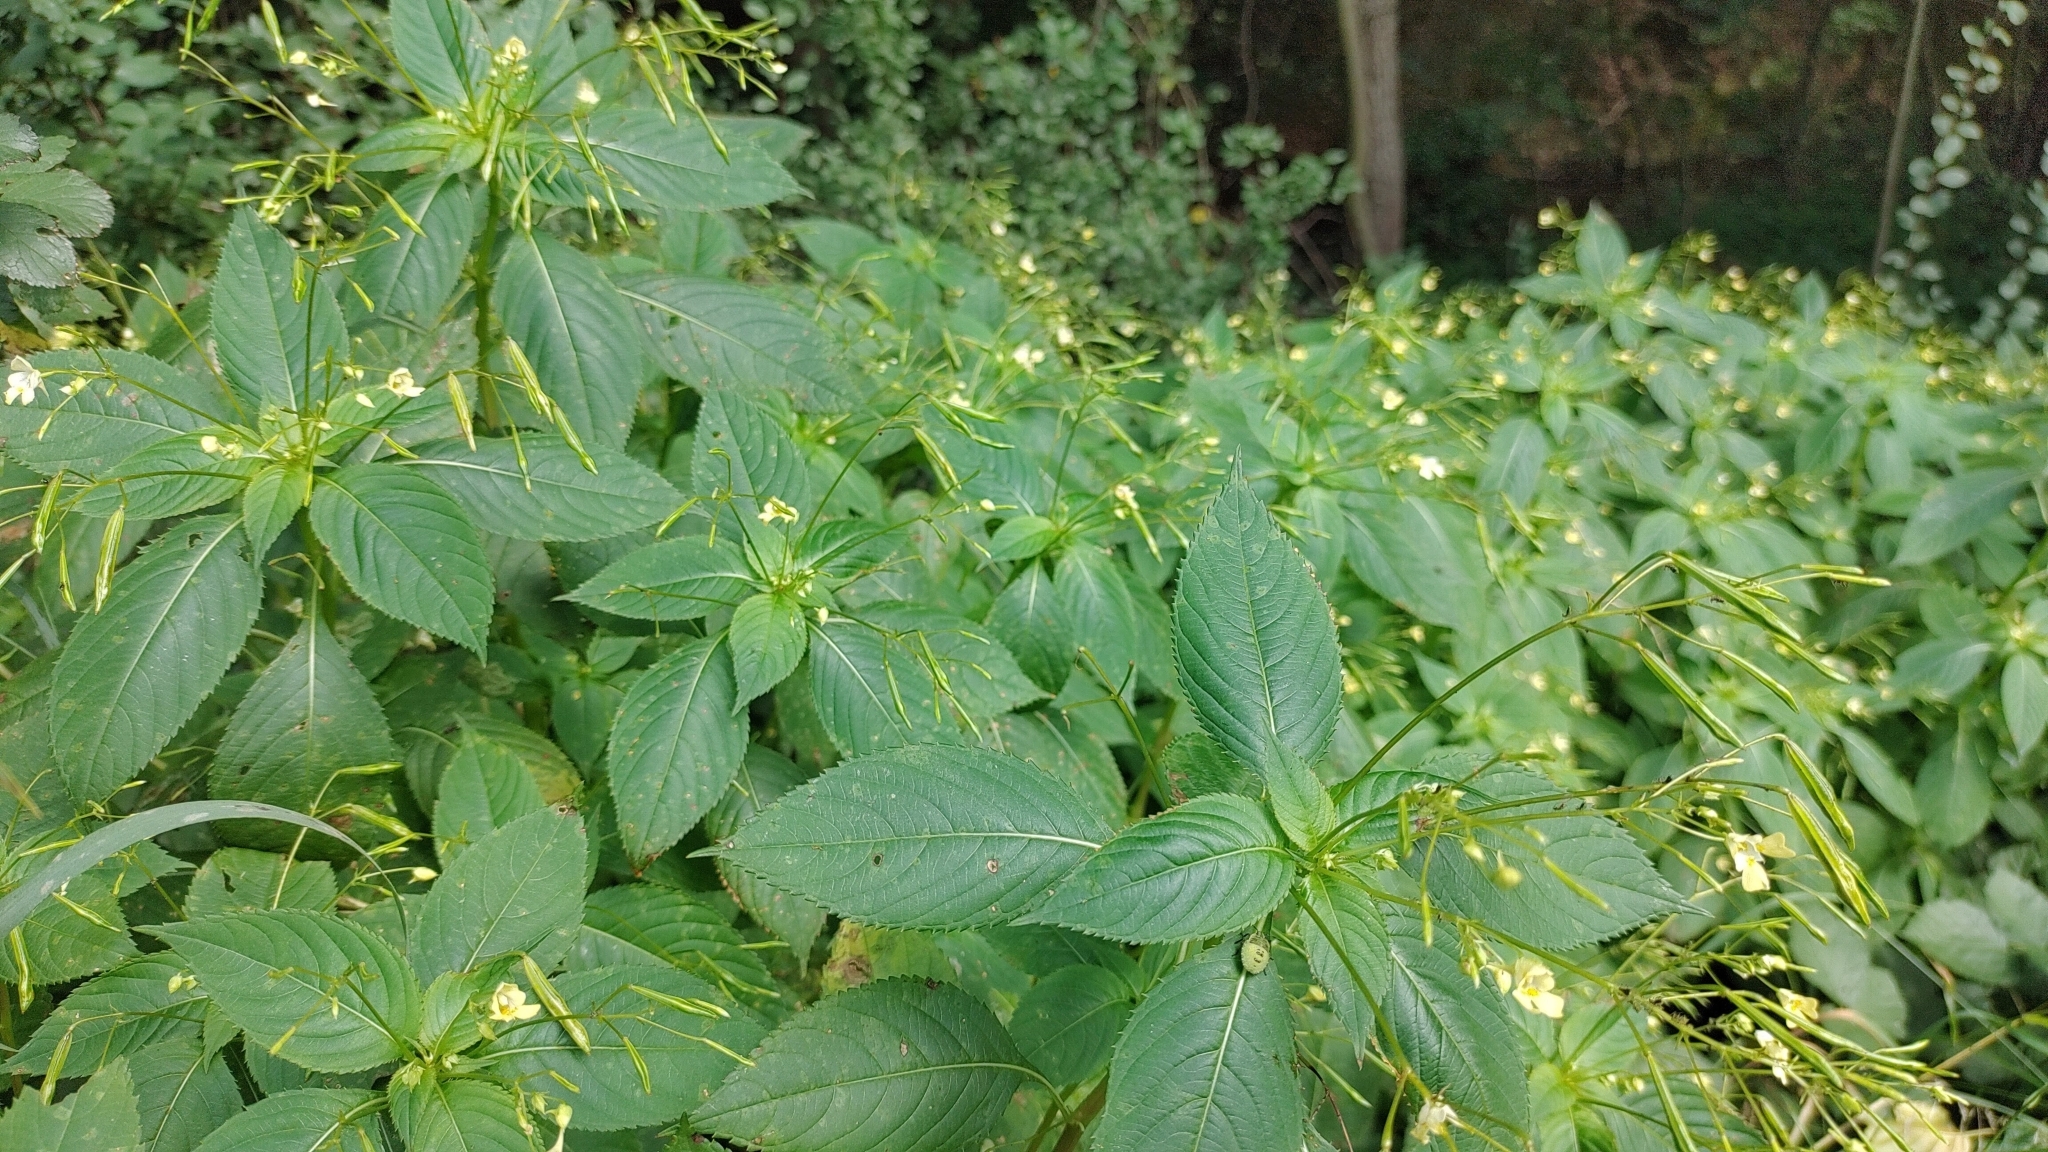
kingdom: Plantae
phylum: Tracheophyta
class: Magnoliopsida
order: Ericales
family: Balsaminaceae
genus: Impatiens
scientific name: Impatiens parviflora
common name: Small balsam
